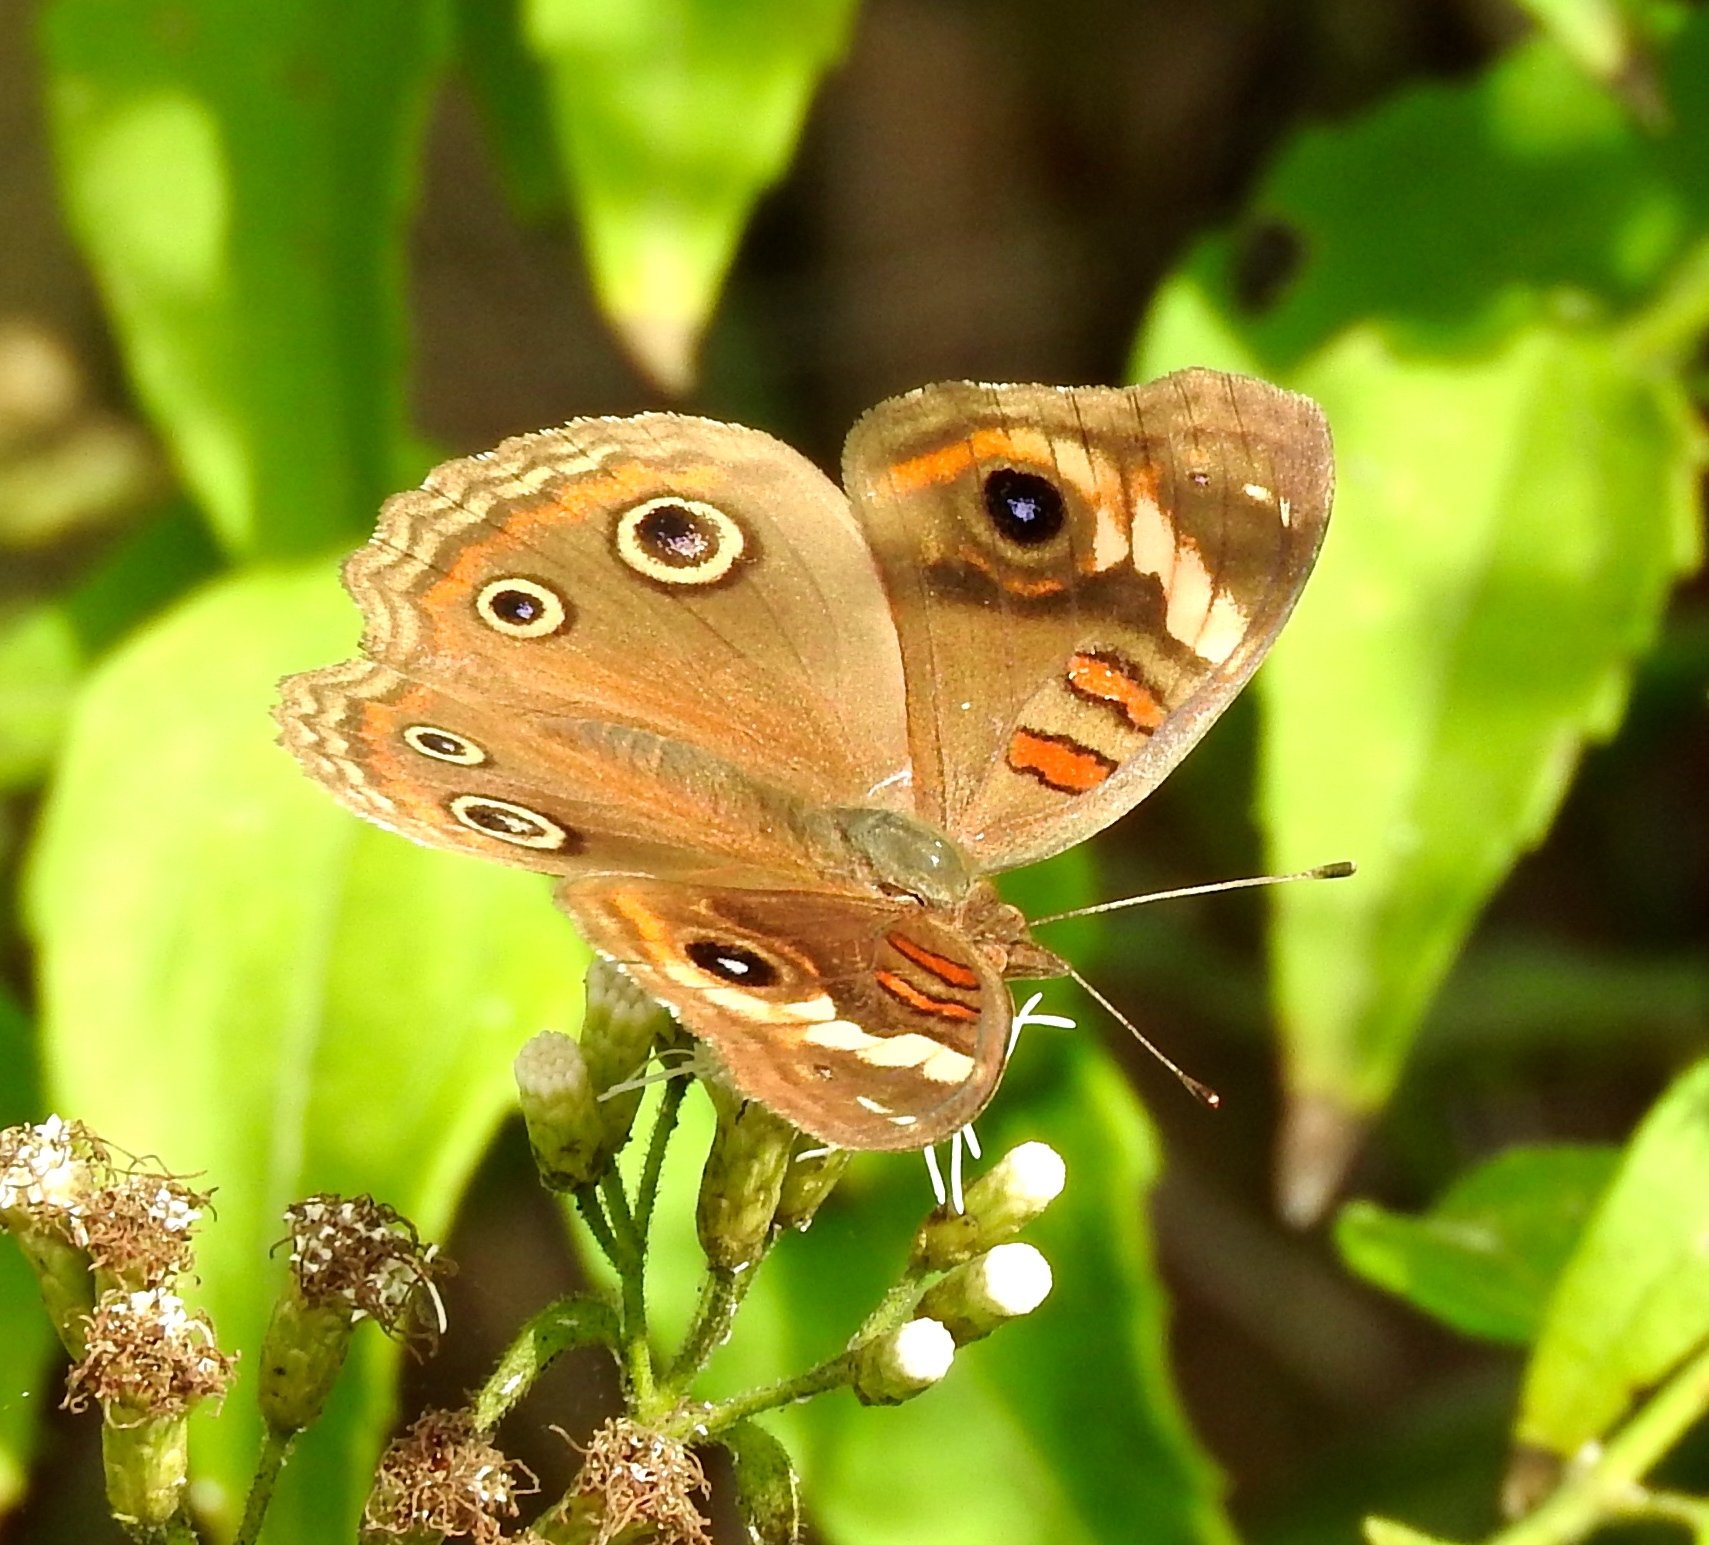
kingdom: Animalia
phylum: Arthropoda
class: Insecta
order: Lepidoptera
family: Nymphalidae
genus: Junonia
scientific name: Junonia
